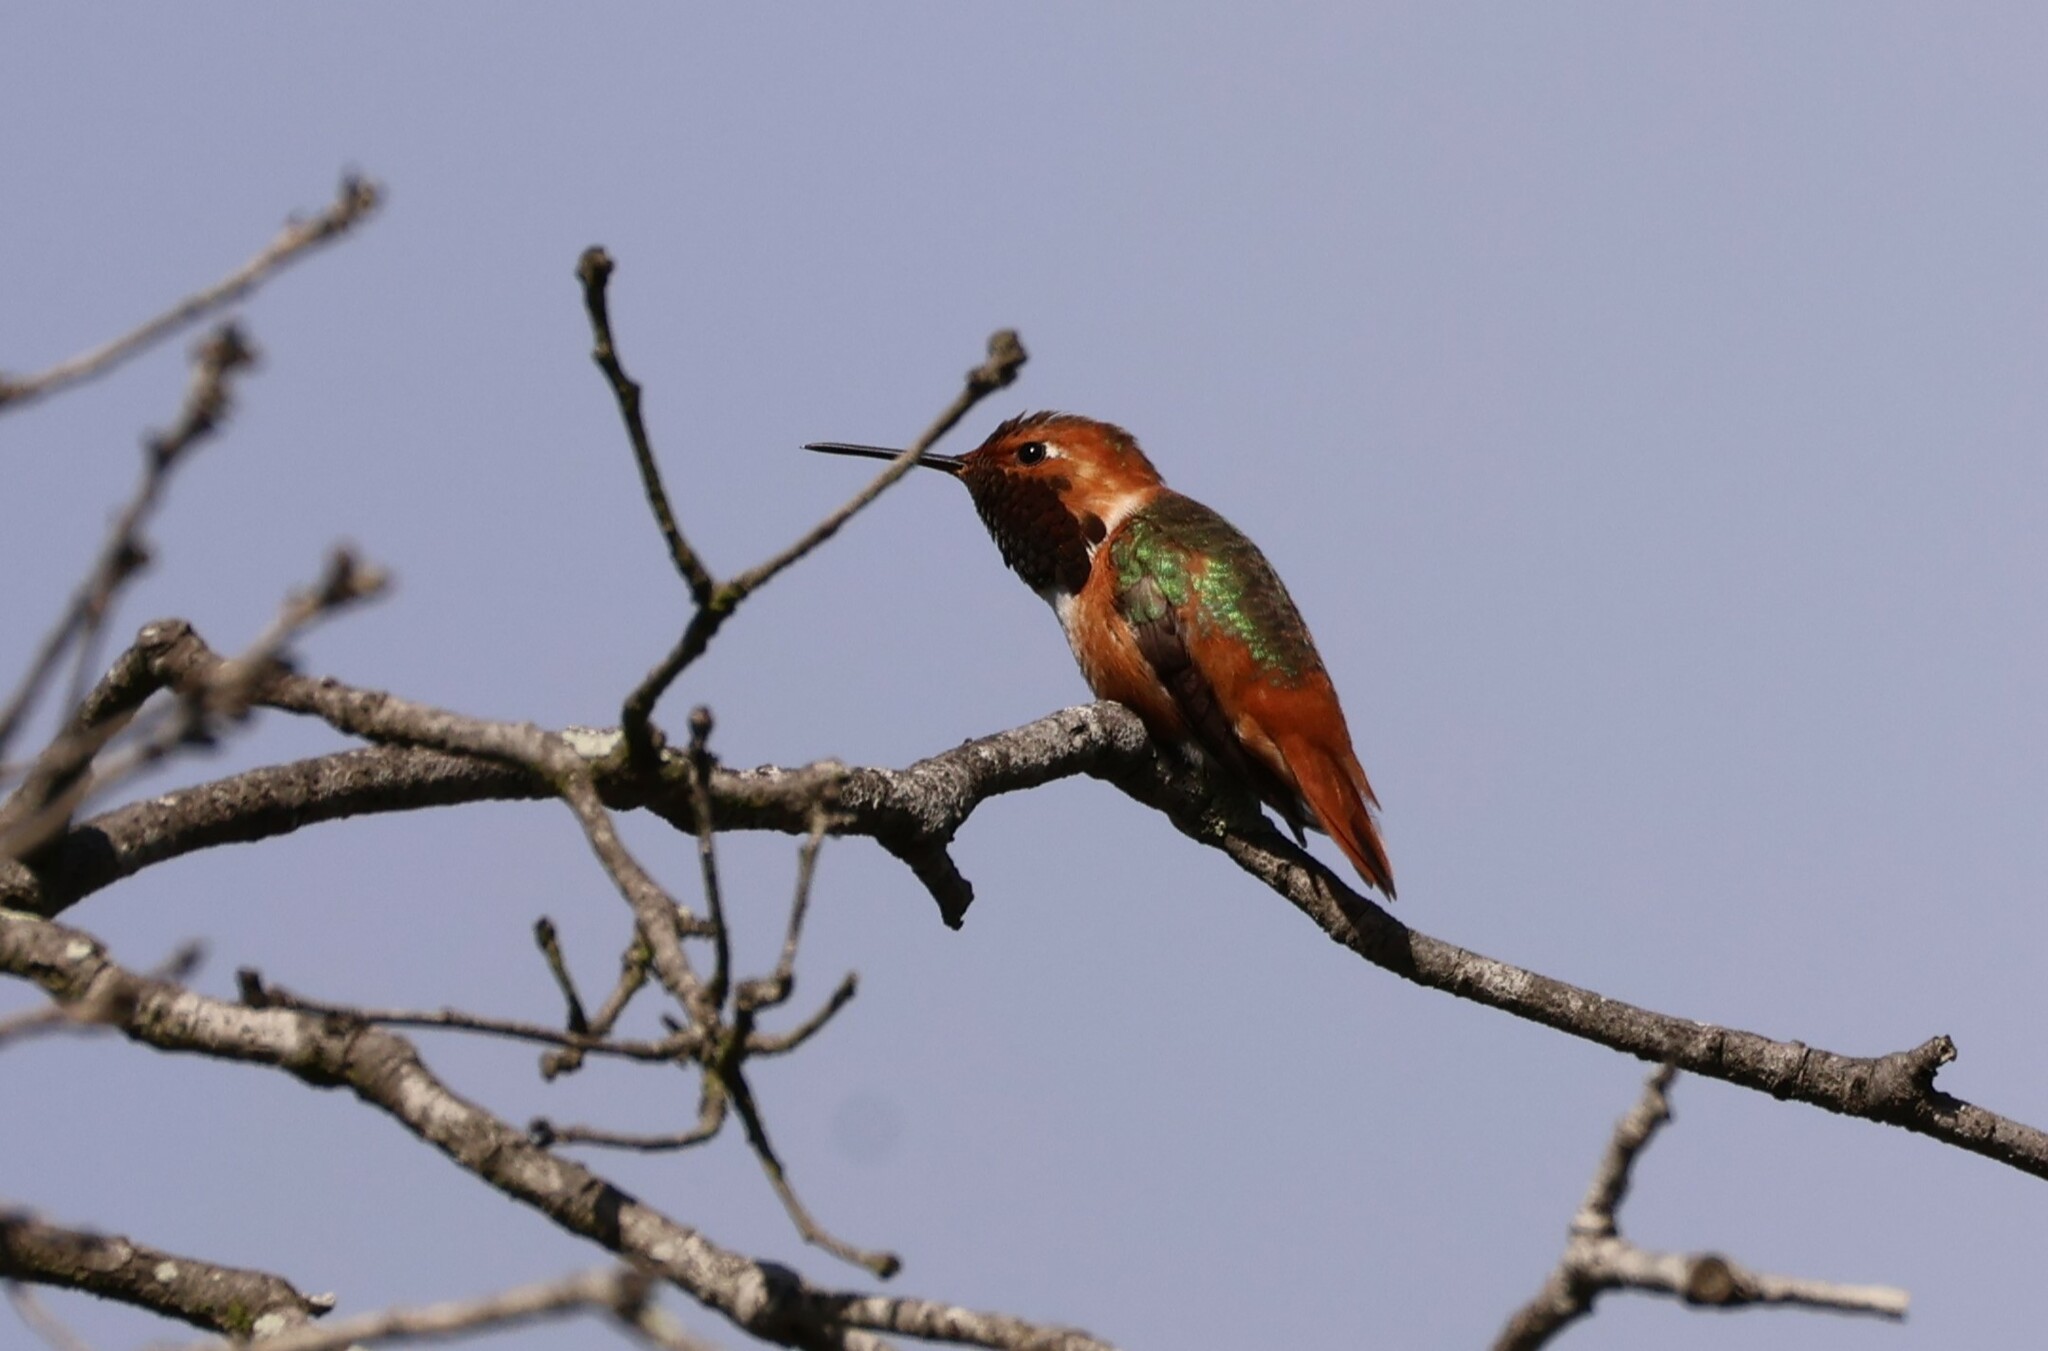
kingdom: Animalia
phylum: Chordata
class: Aves
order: Apodiformes
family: Trochilidae
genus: Selasphorus
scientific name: Selasphorus sasin
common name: Allen's hummingbird
